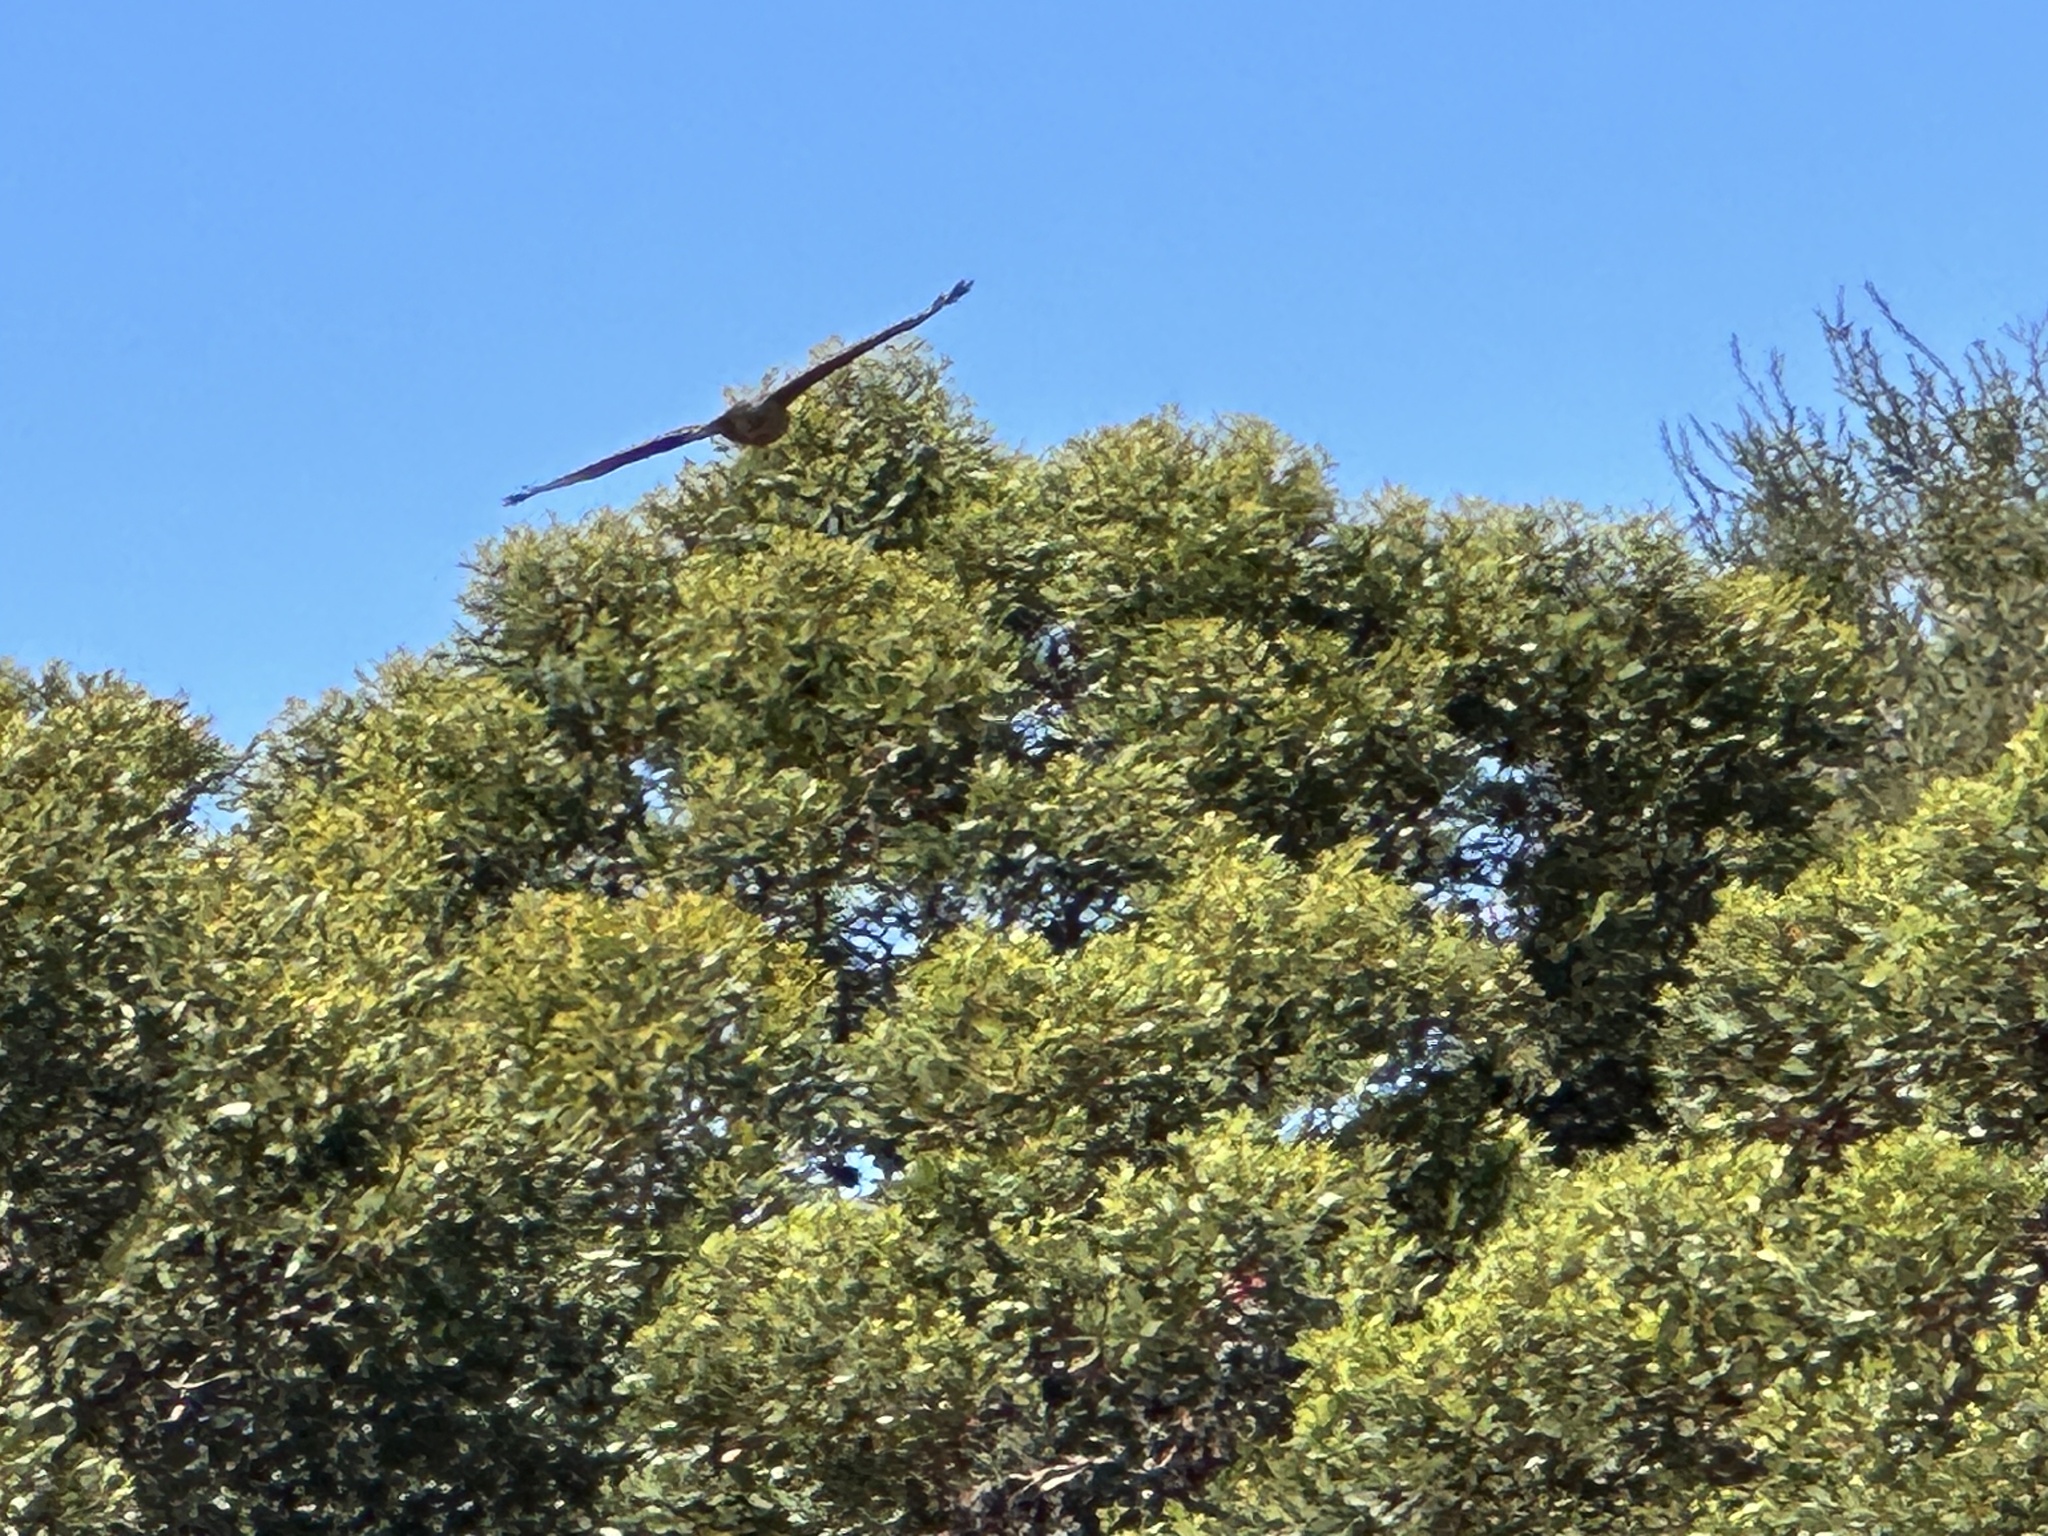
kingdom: Animalia
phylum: Chordata
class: Aves
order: Accipitriformes
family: Accipitridae
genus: Buteo
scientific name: Buteo lineatus
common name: Red-shouldered hawk
